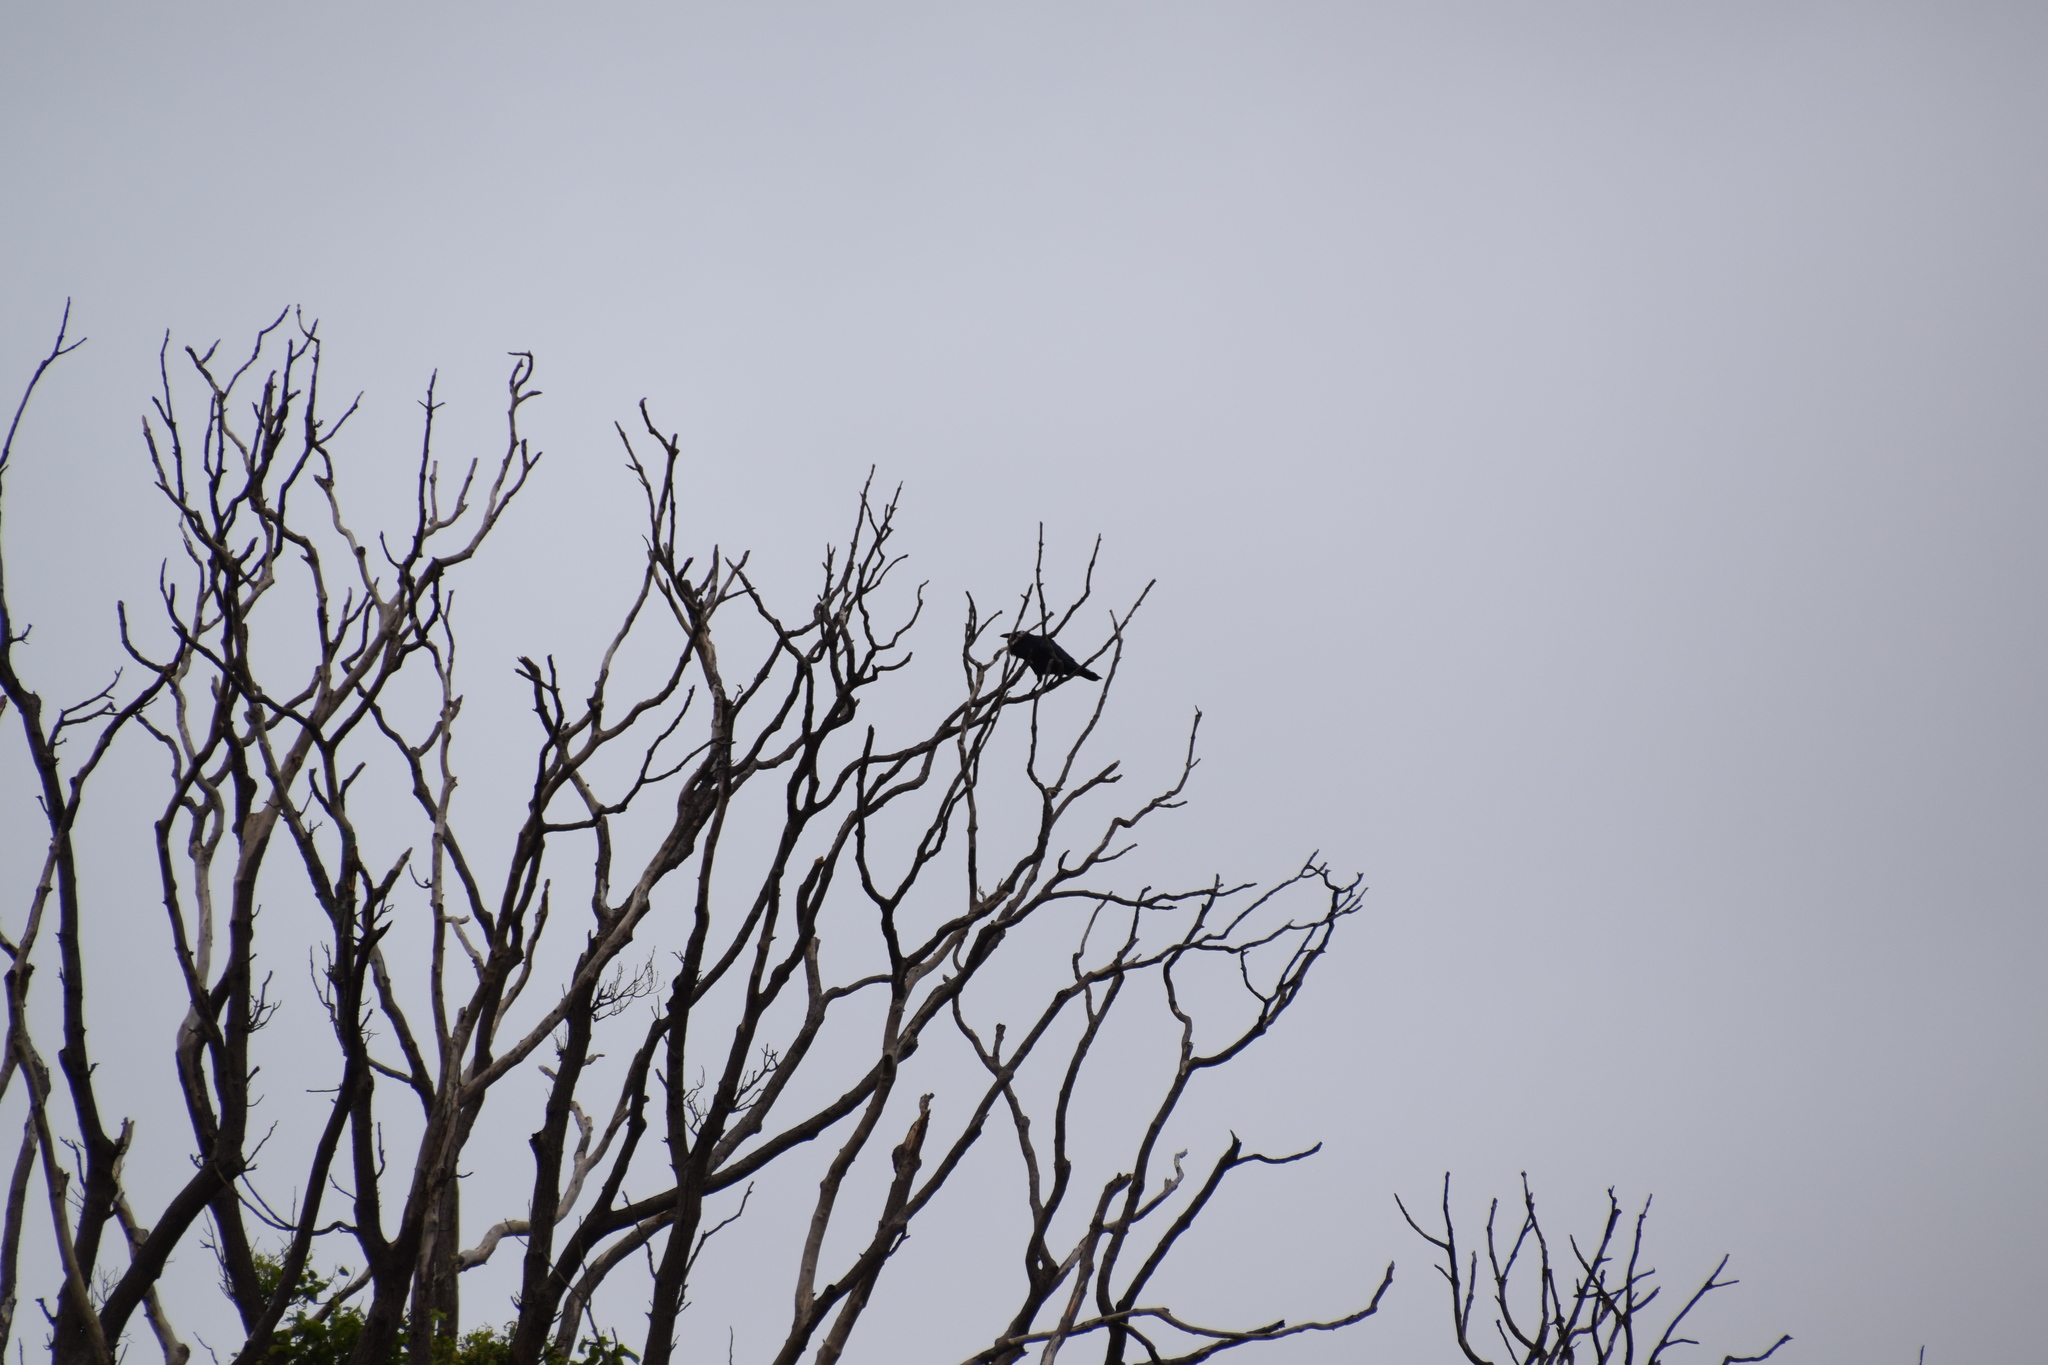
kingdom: Animalia
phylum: Chordata
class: Aves
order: Passeriformes
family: Corvidae
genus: Corvus
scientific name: Corvus coronoides
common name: Australian raven
